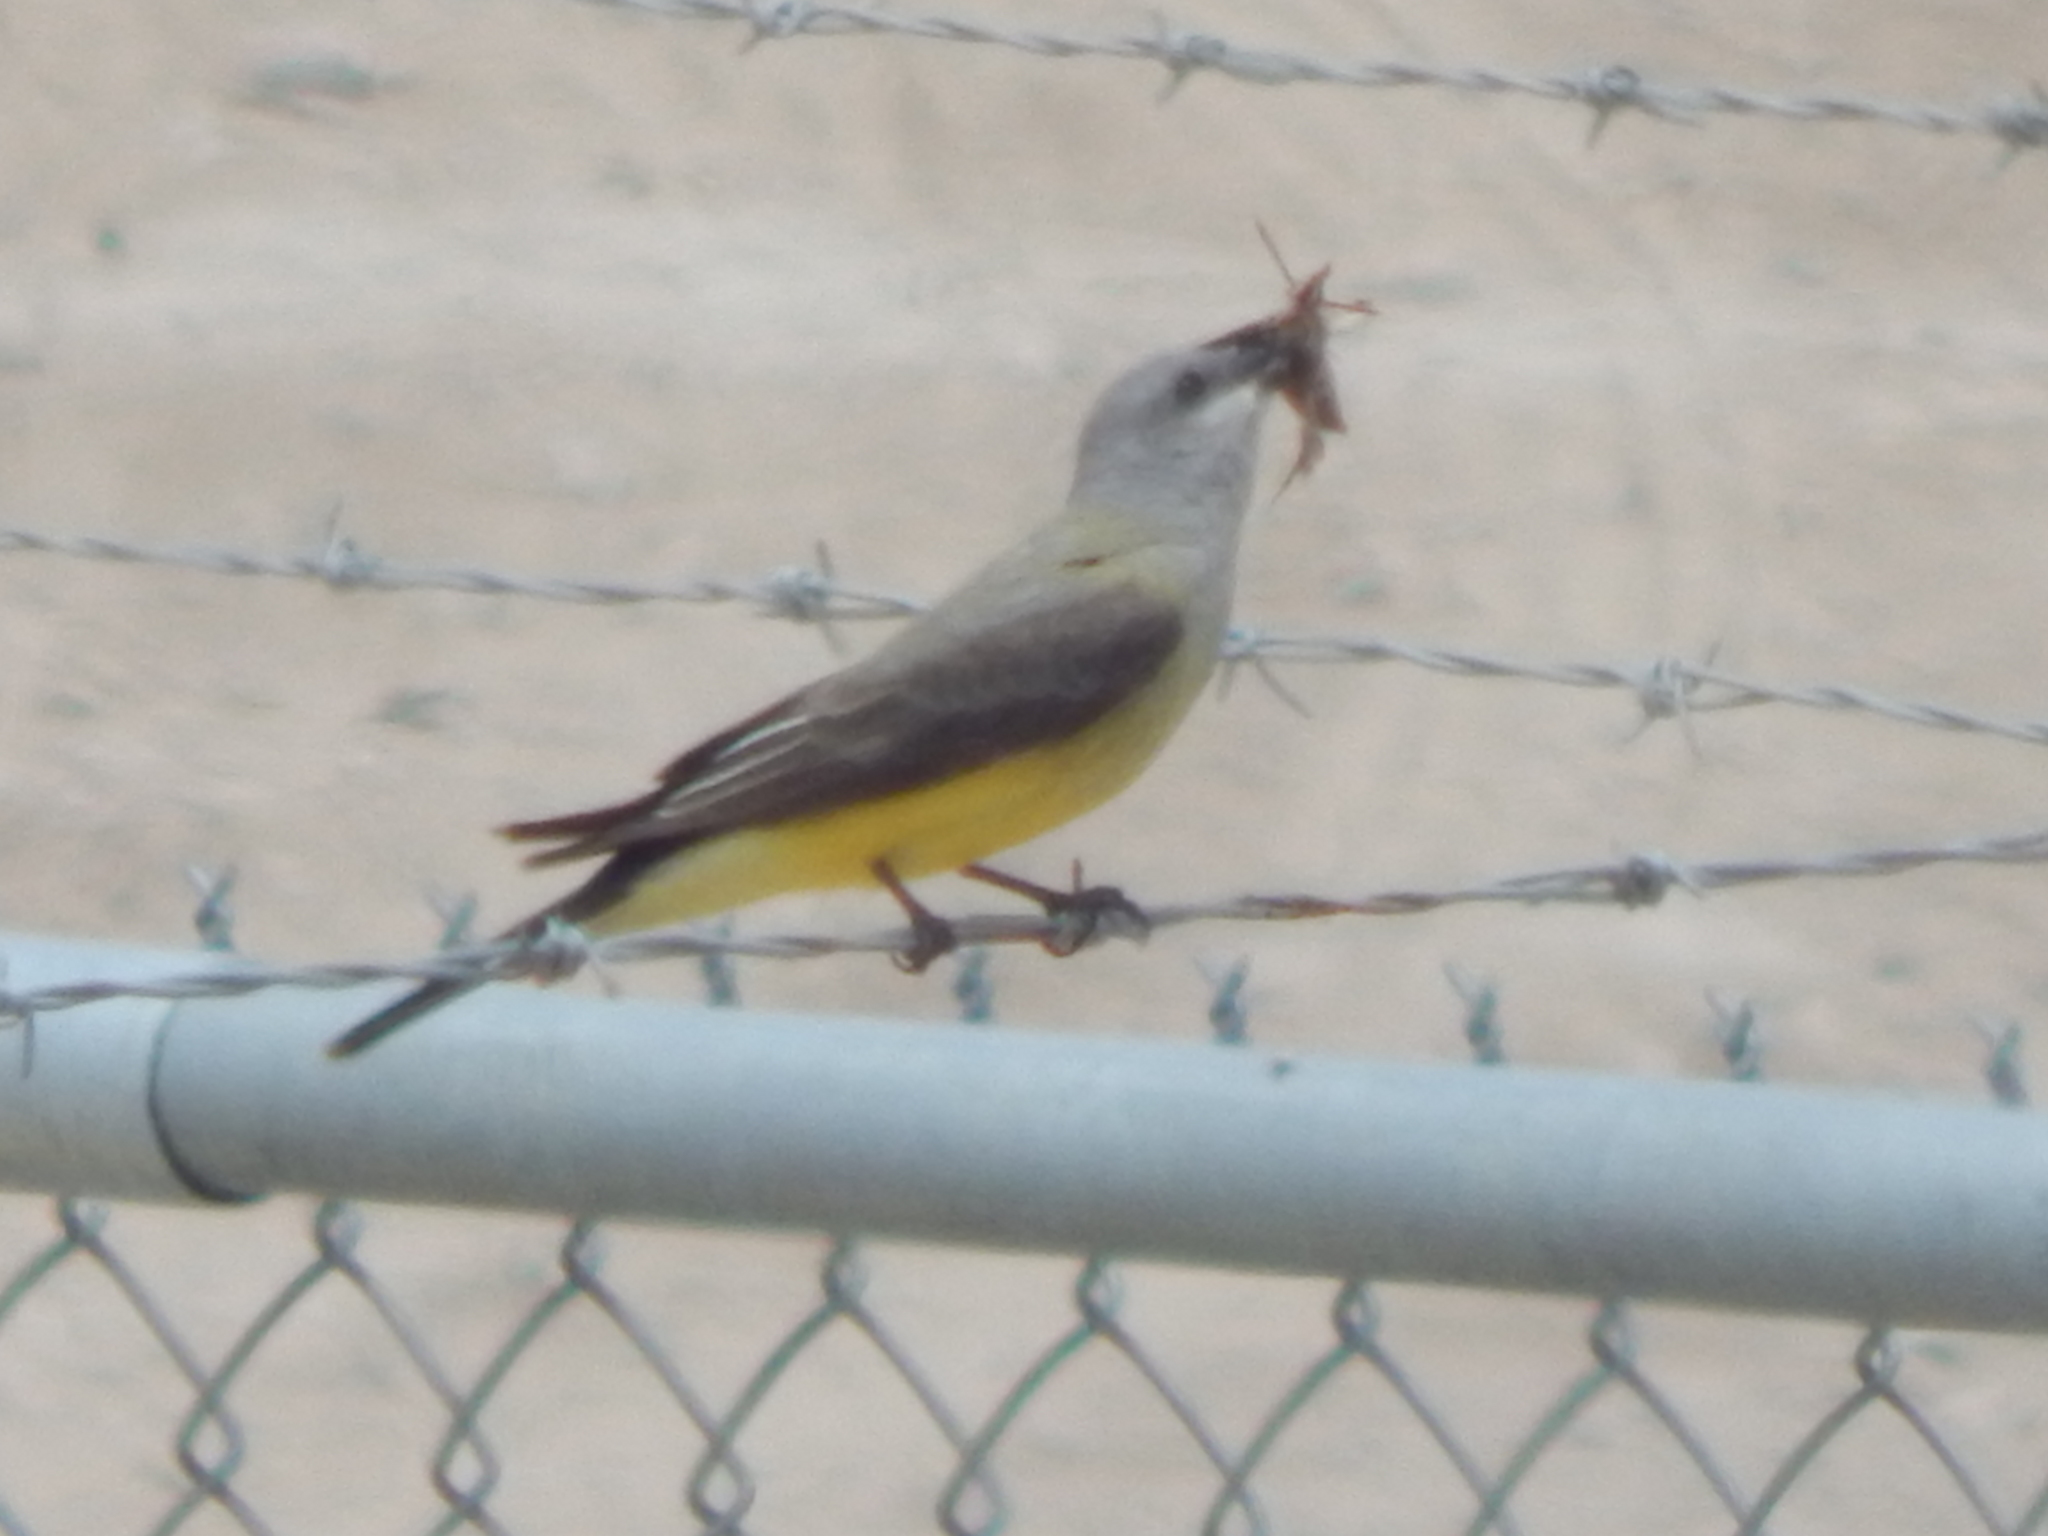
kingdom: Animalia
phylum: Chordata
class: Aves
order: Passeriformes
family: Tyrannidae
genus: Tyrannus
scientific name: Tyrannus verticalis
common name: Western kingbird
